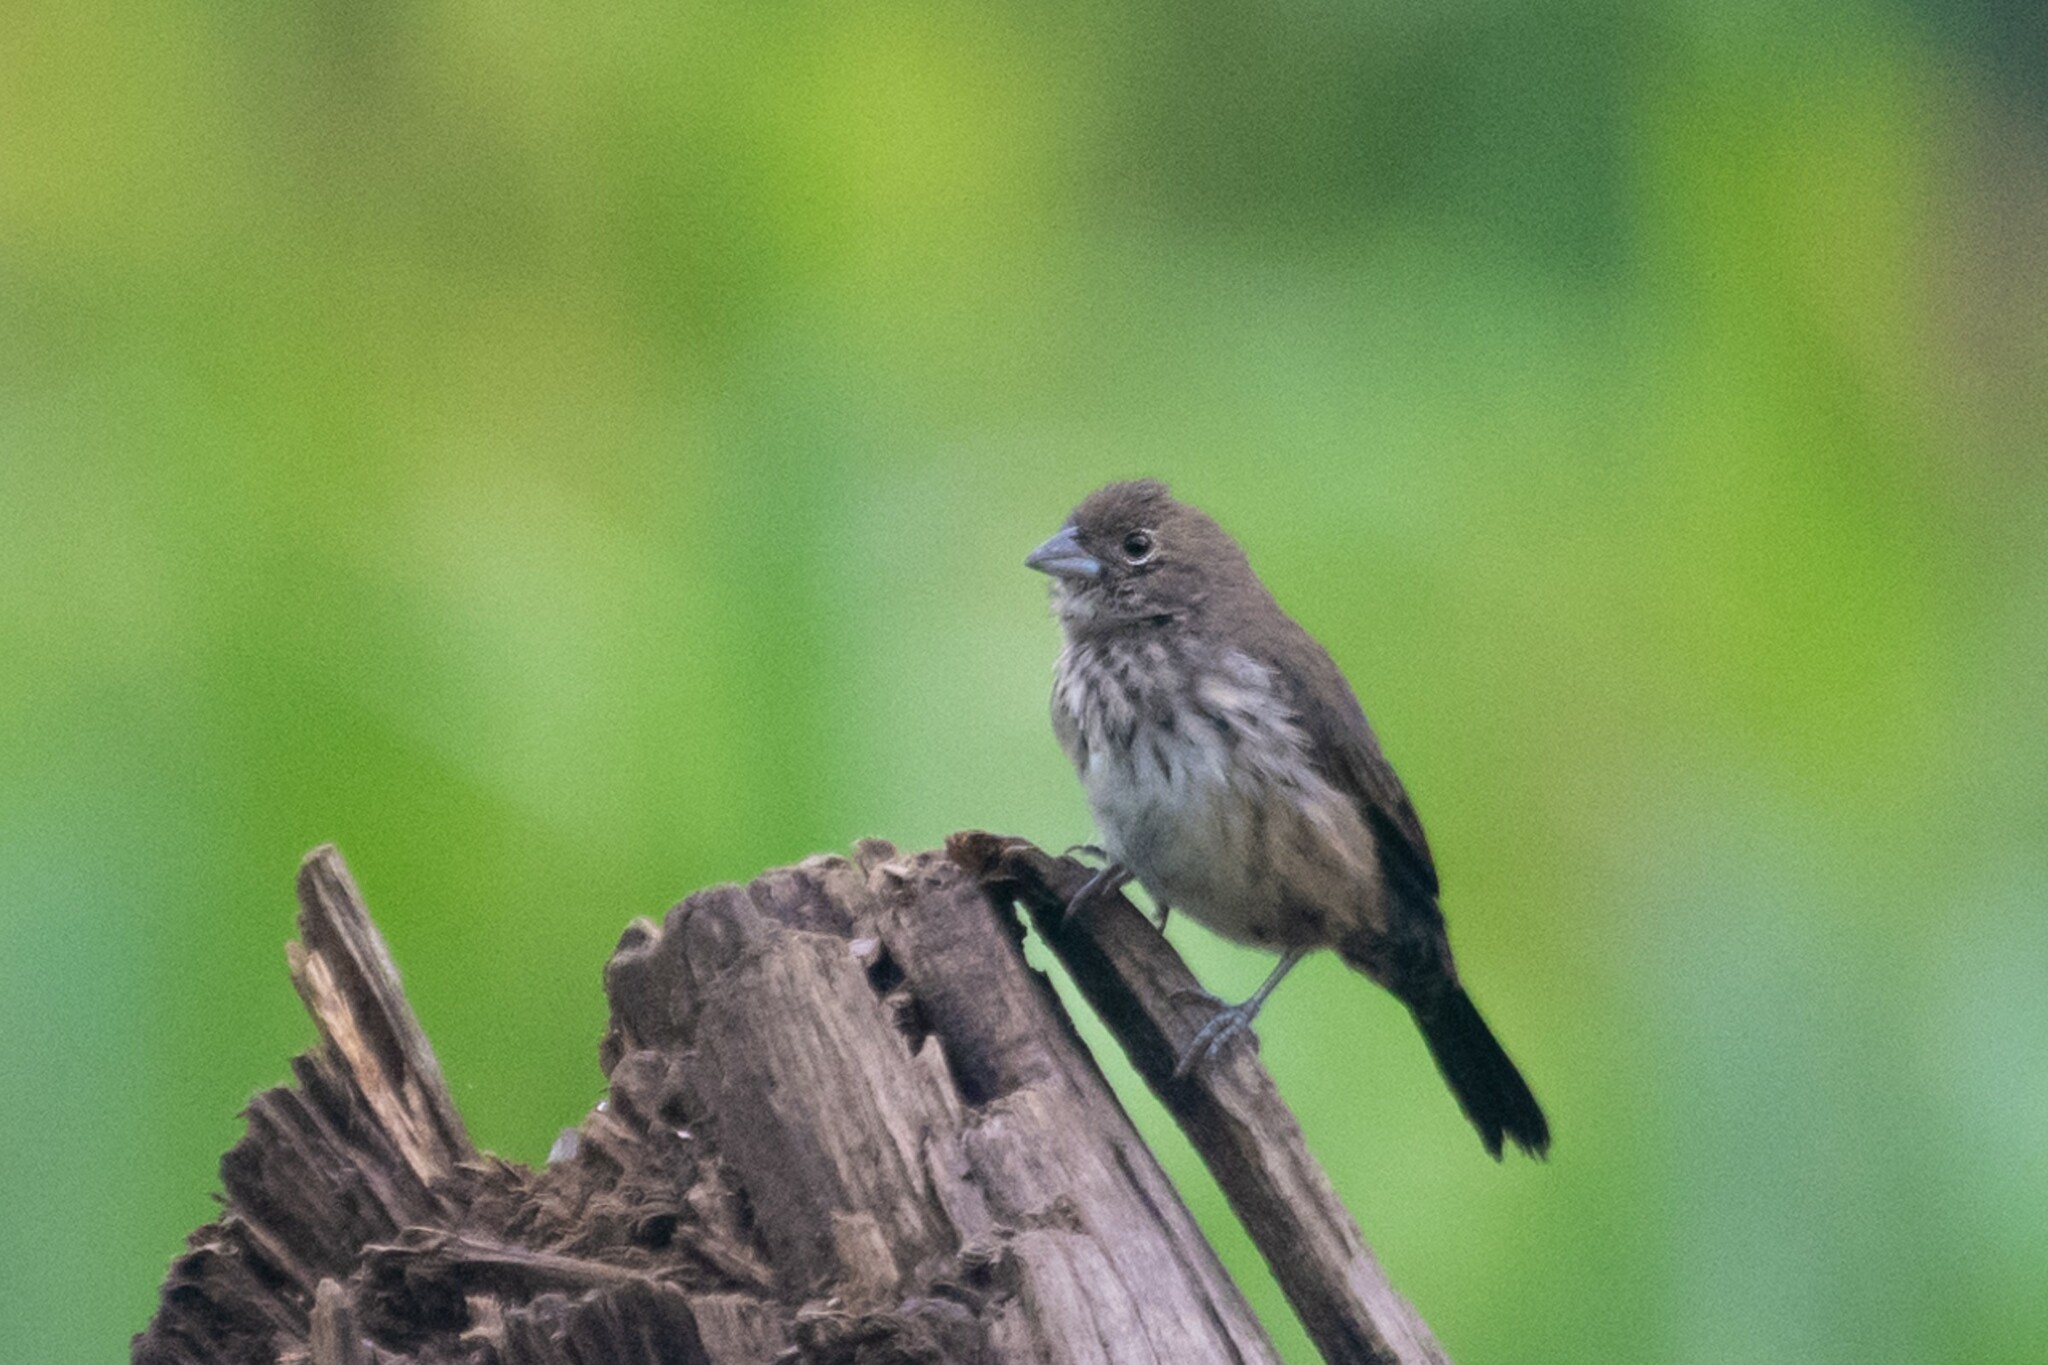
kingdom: Animalia
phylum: Chordata
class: Aves
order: Passeriformes
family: Thraupidae
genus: Volatinia
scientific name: Volatinia jacarina
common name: Blue-black grassquit
